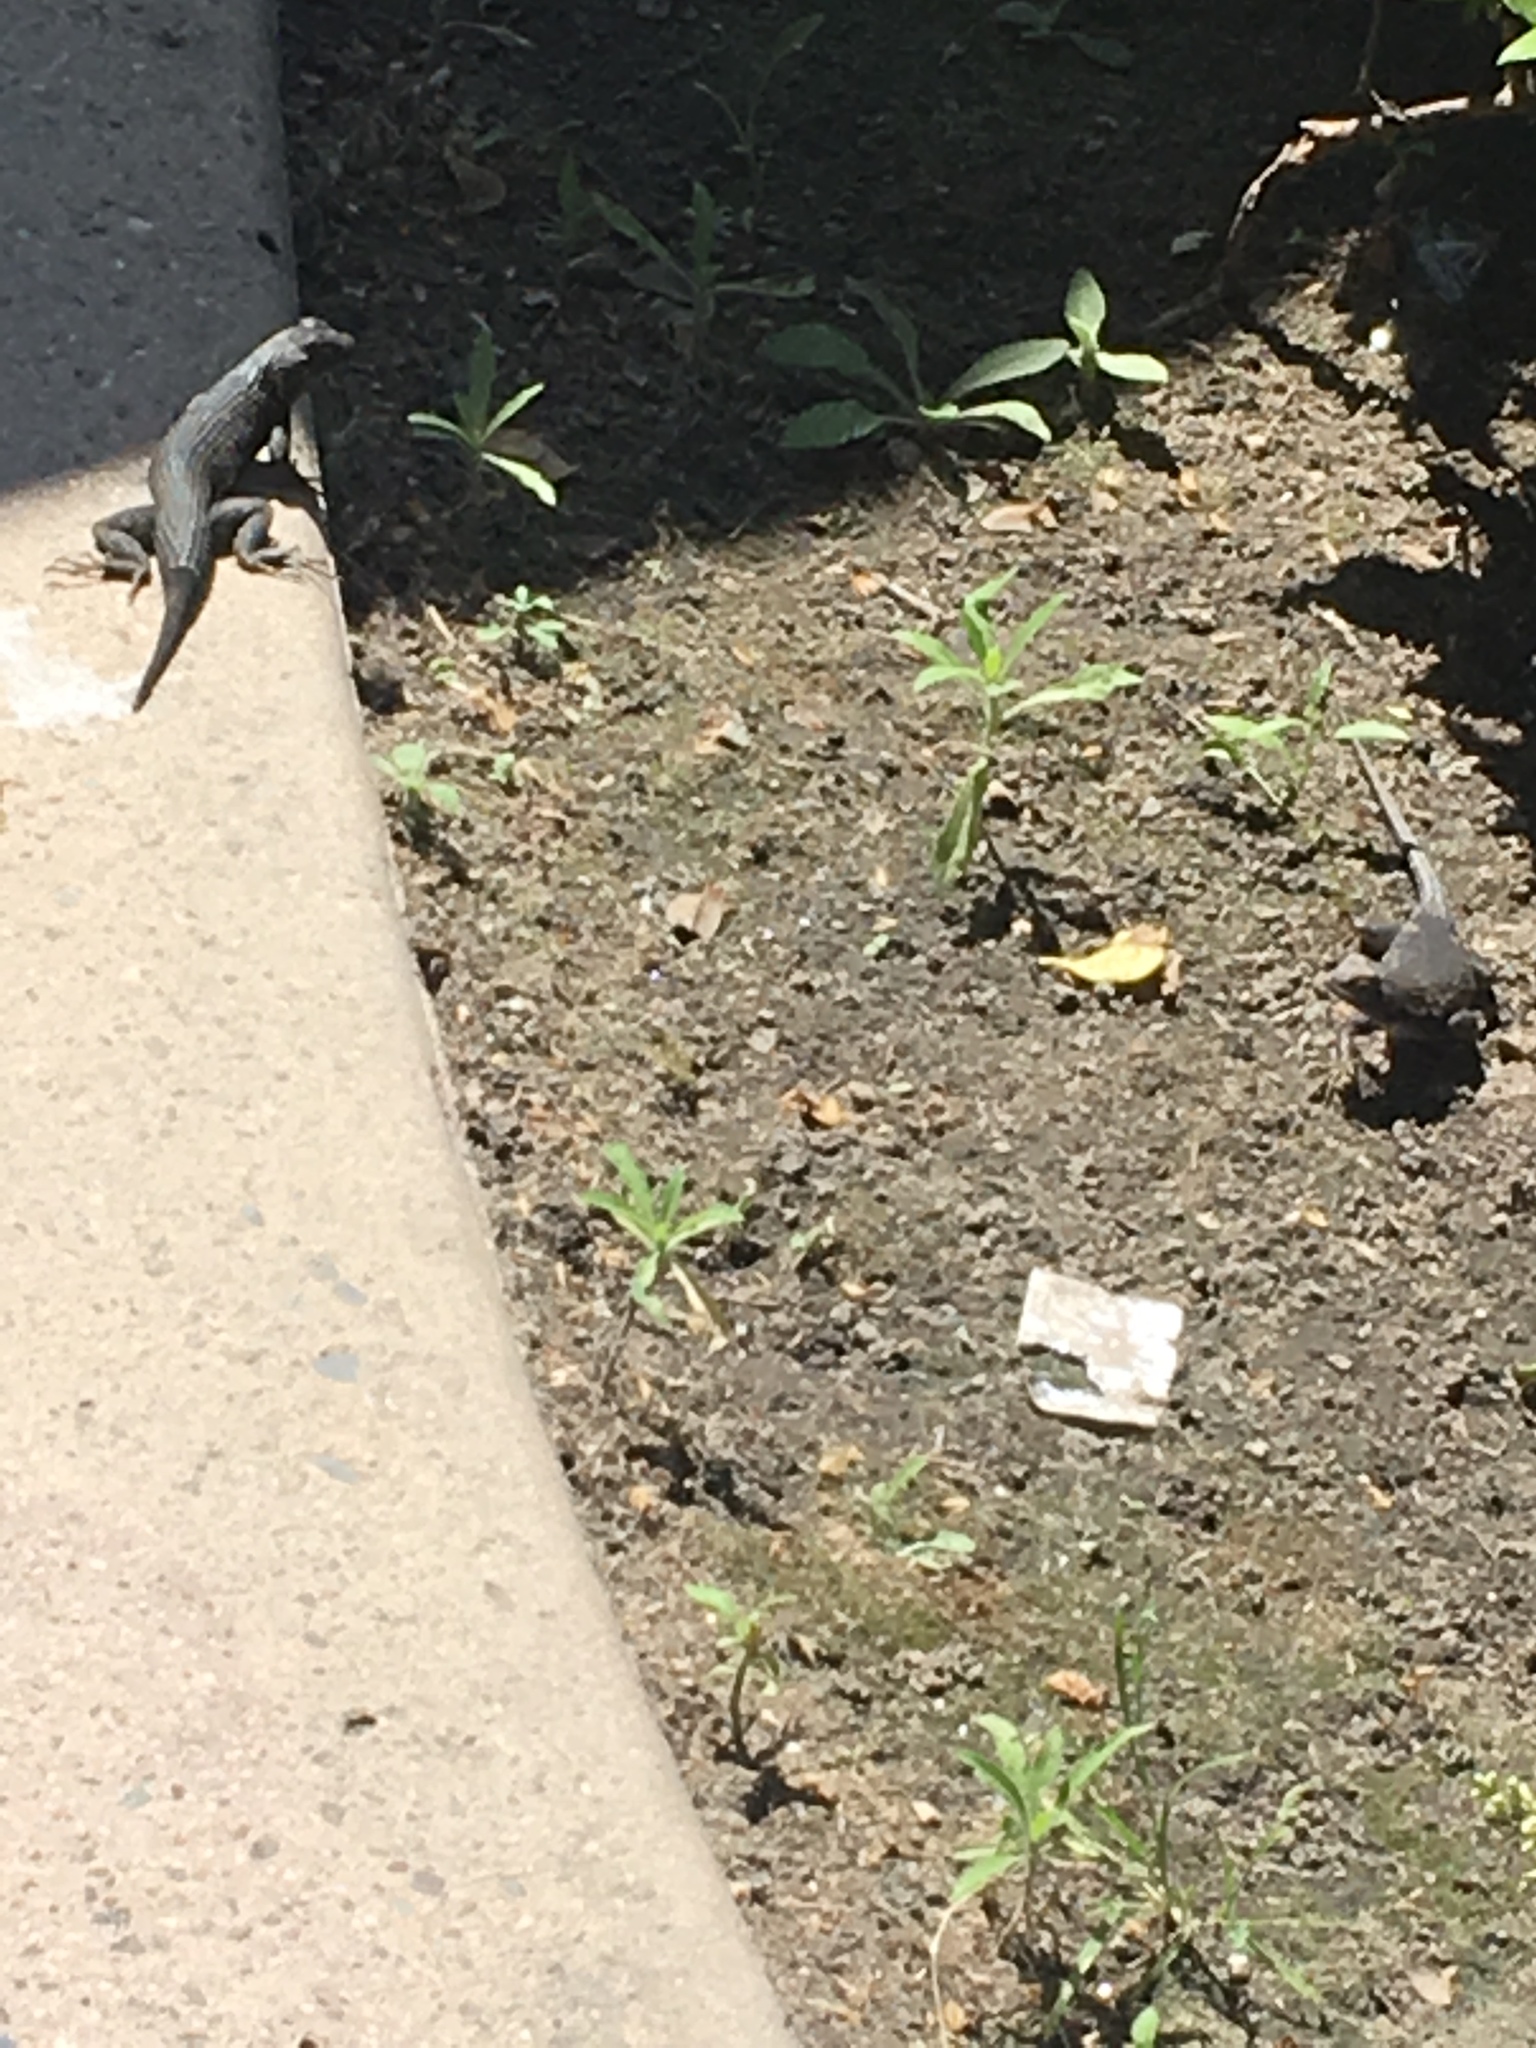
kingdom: Animalia
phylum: Chordata
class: Squamata
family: Phrynosomatidae
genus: Sceloporus
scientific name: Sceloporus occidentalis
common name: Western fence lizard
